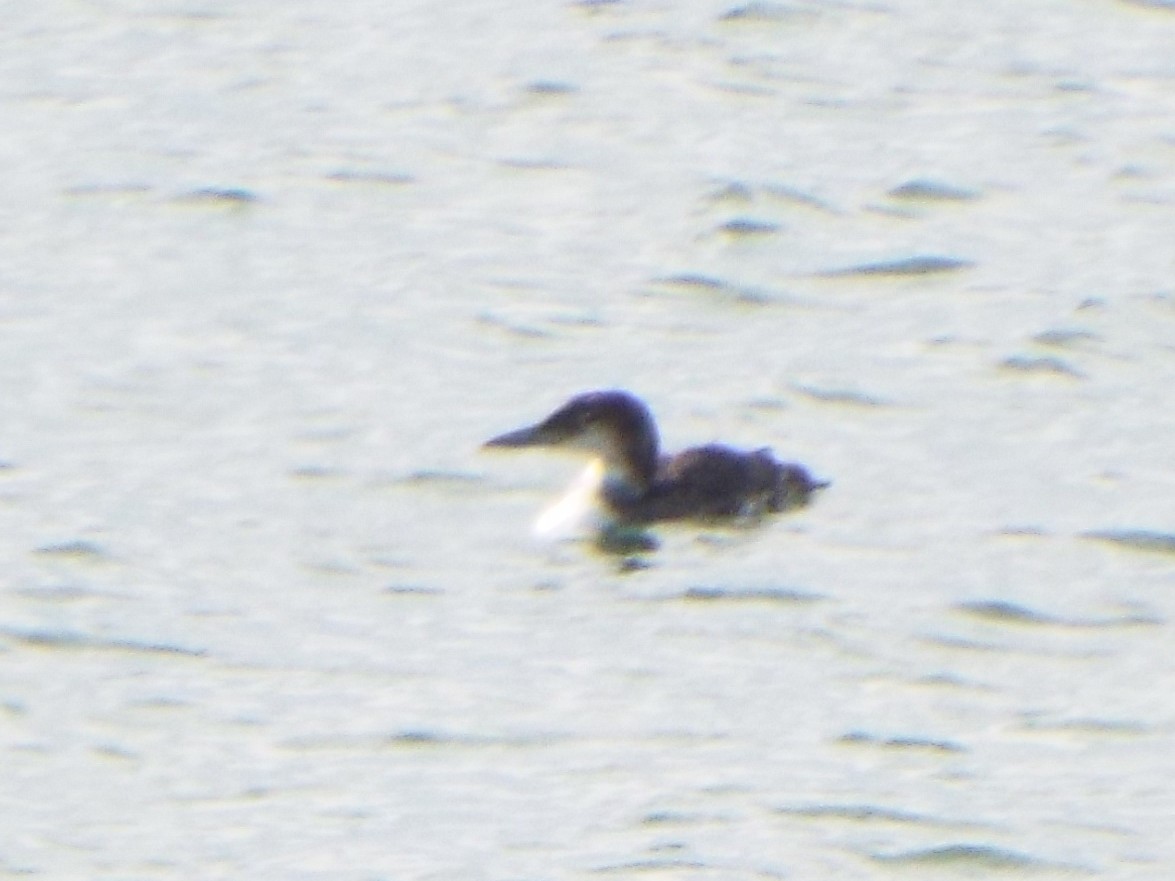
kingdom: Animalia
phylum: Chordata
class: Aves
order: Gaviiformes
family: Gaviidae
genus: Gavia
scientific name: Gavia immer
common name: Common loon
